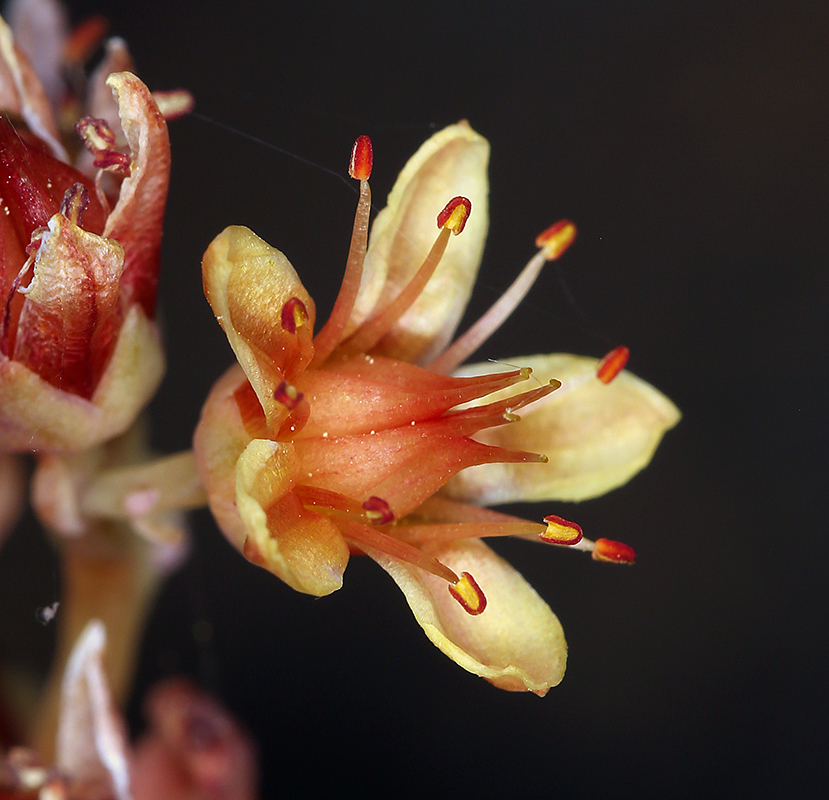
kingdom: Plantae
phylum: Tracheophyta
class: Magnoliopsida
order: Saxifragales
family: Crassulaceae
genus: Sedum
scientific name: Sedum obtusatum
